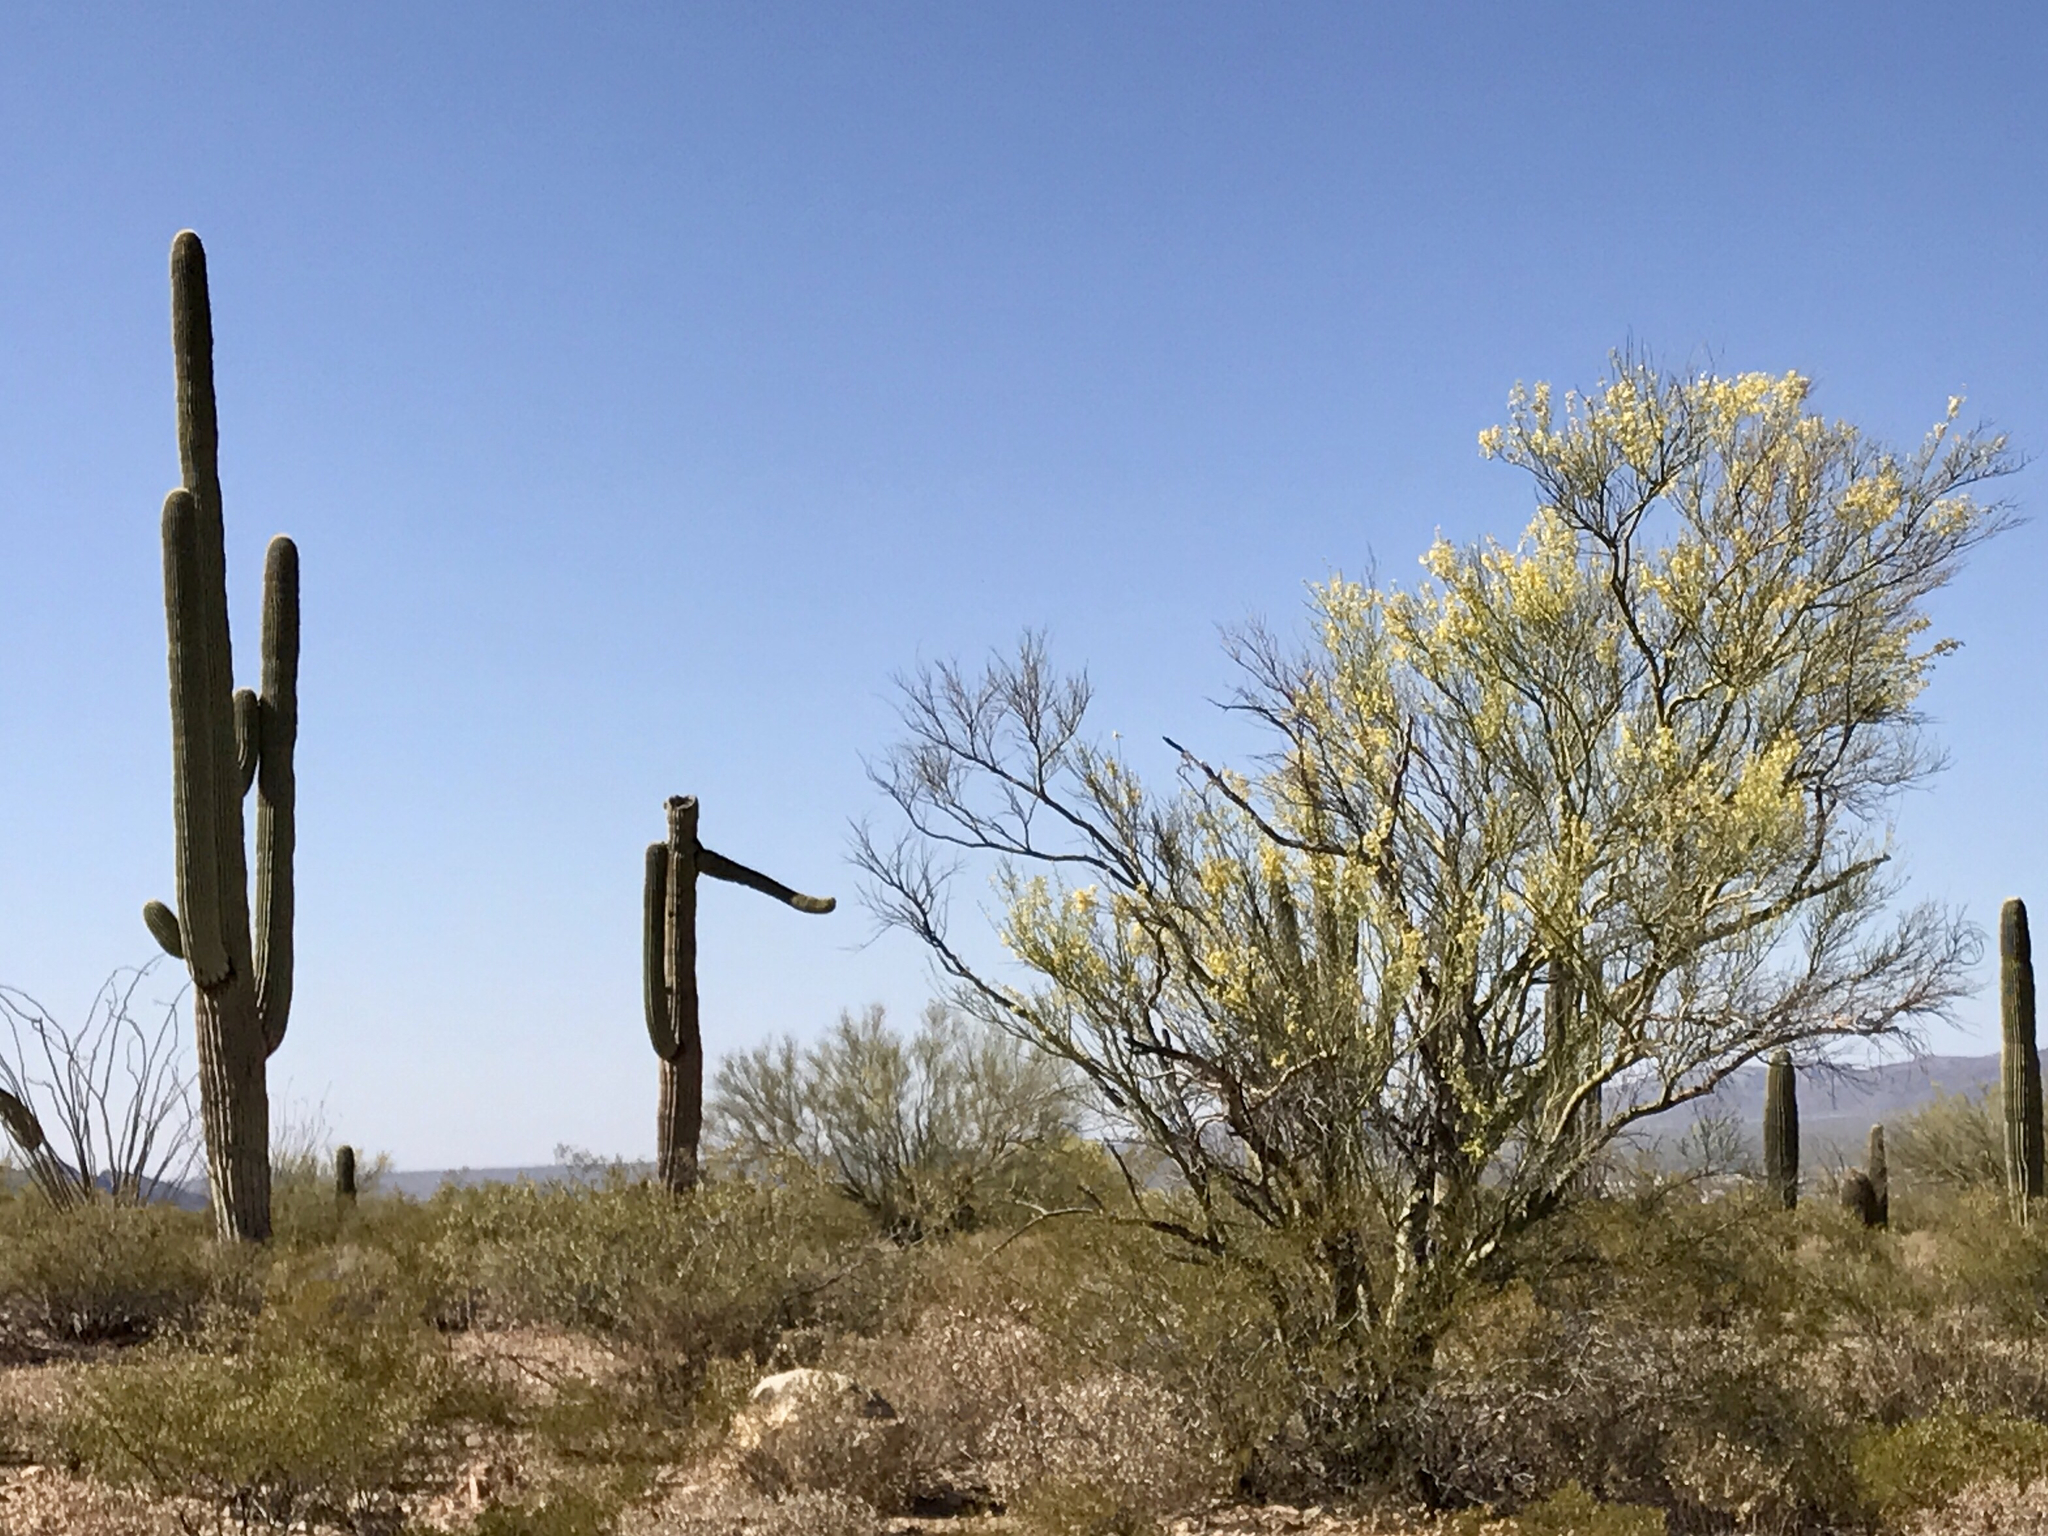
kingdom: Plantae
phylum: Tracheophyta
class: Magnoliopsida
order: Caryophyllales
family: Cactaceae
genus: Carnegiea
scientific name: Carnegiea gigantea
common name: Saguaro
